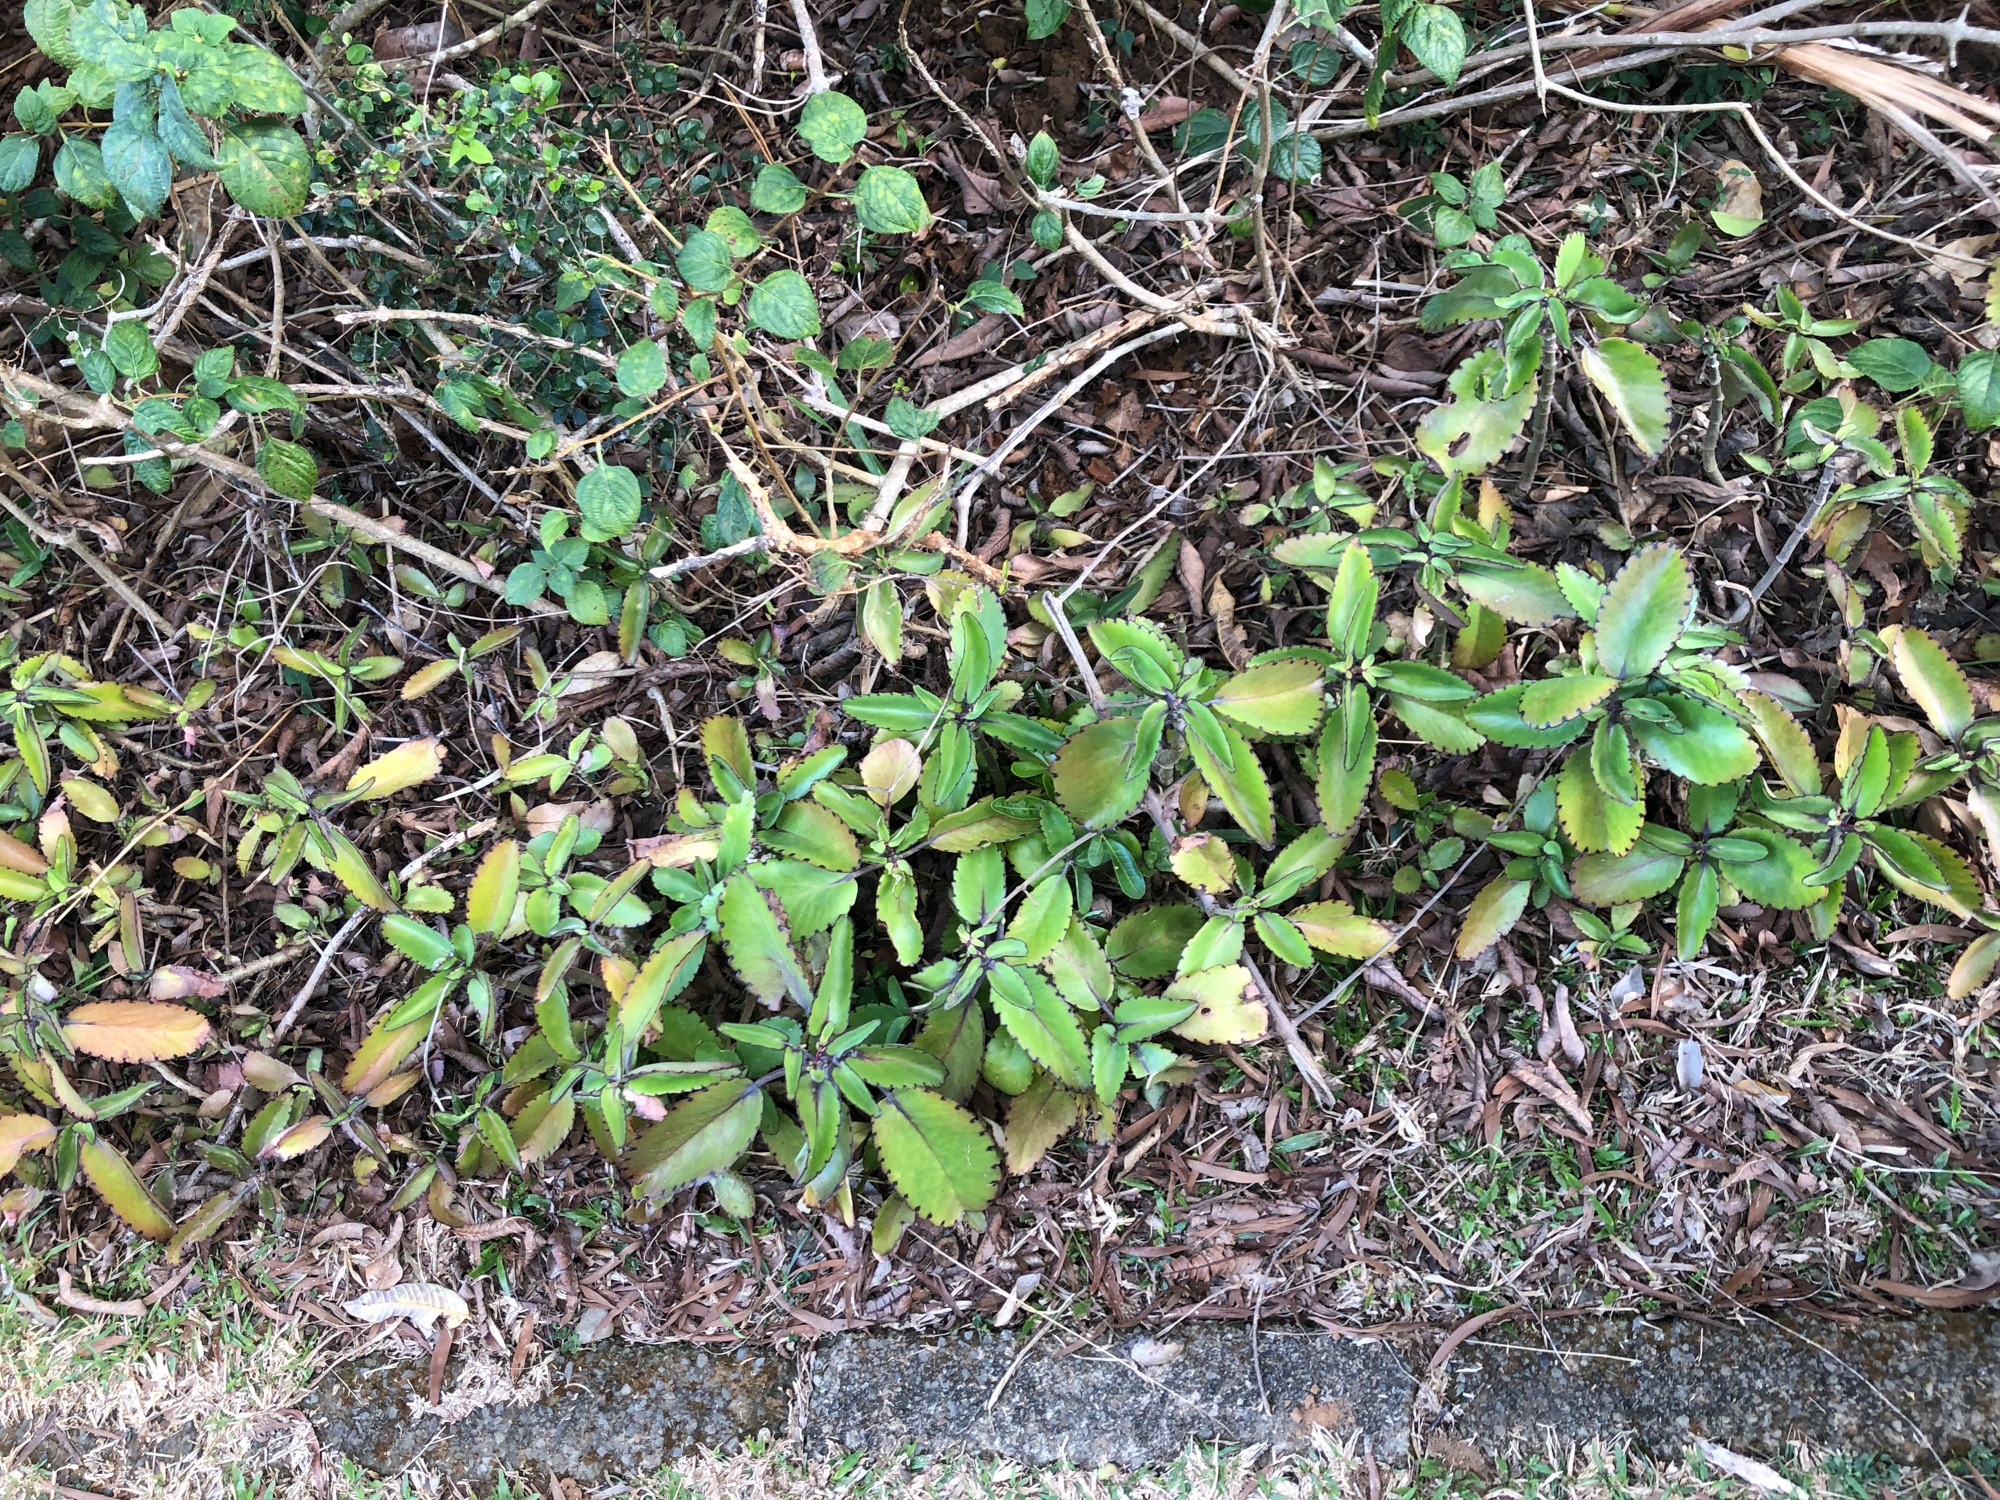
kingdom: Plantae
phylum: Tracheophyta
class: Magnoliopsida
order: Saxifragales
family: Crassulaceae
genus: Kalanchoe
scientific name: Kalanchoe pinnata
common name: Cathedral bells
